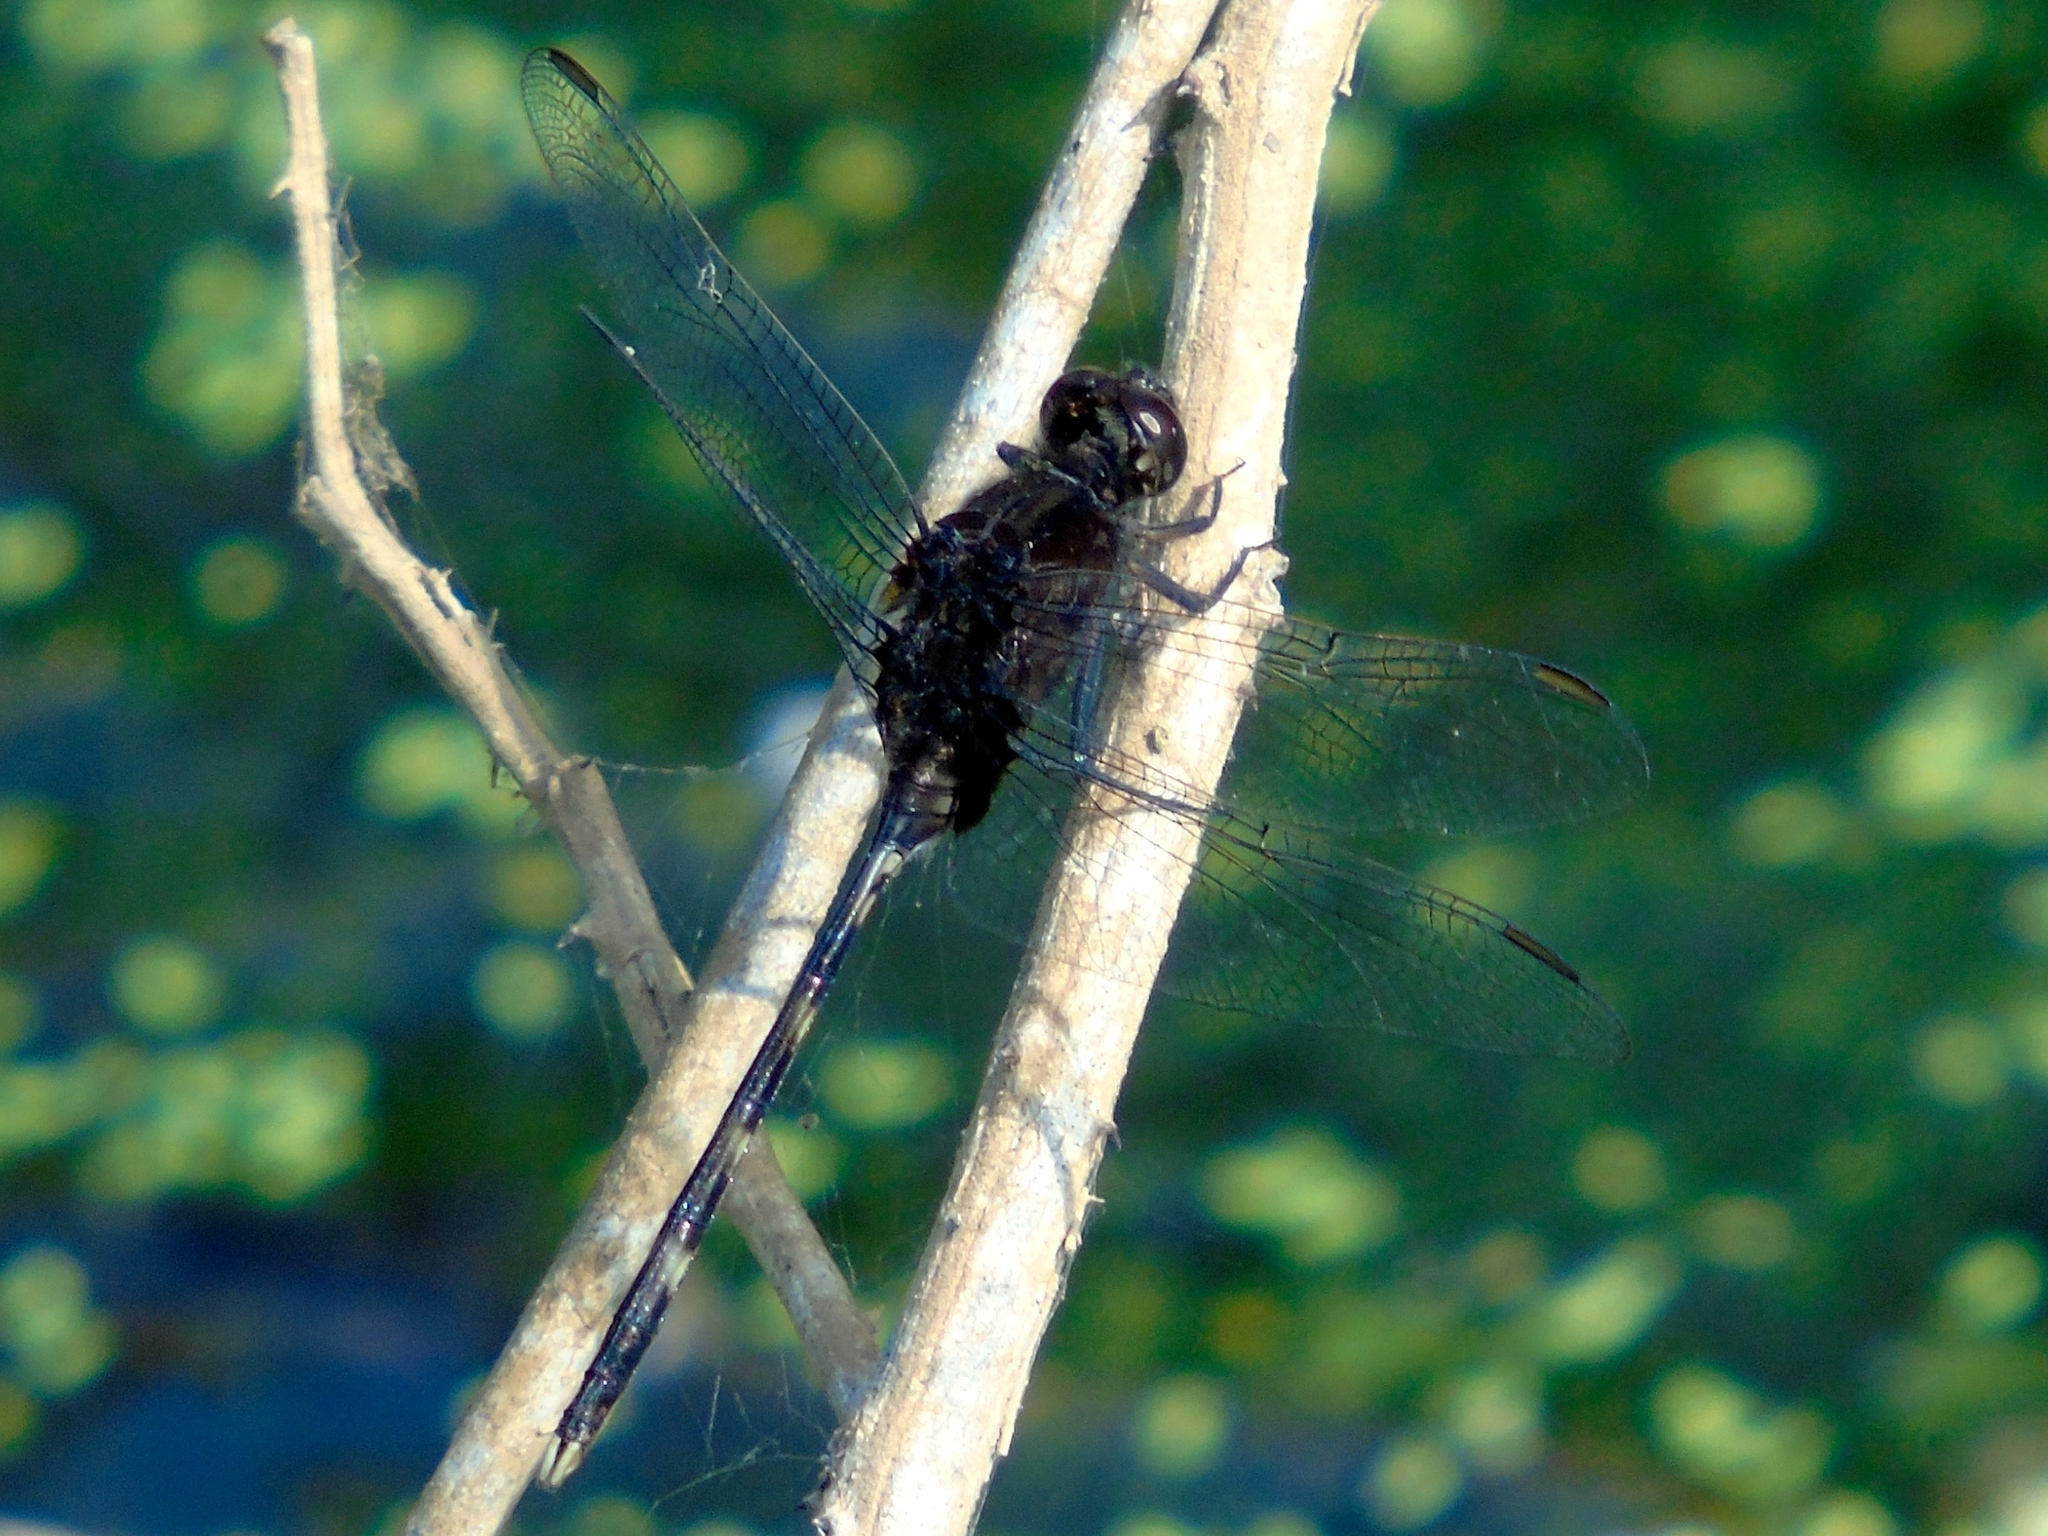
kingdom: Animalia
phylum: Arthropoda
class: Insecta
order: Odonata
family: Libellulidae
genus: Erythemis
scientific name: Erythemis plebeja
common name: Pin-tailed pondhawk
